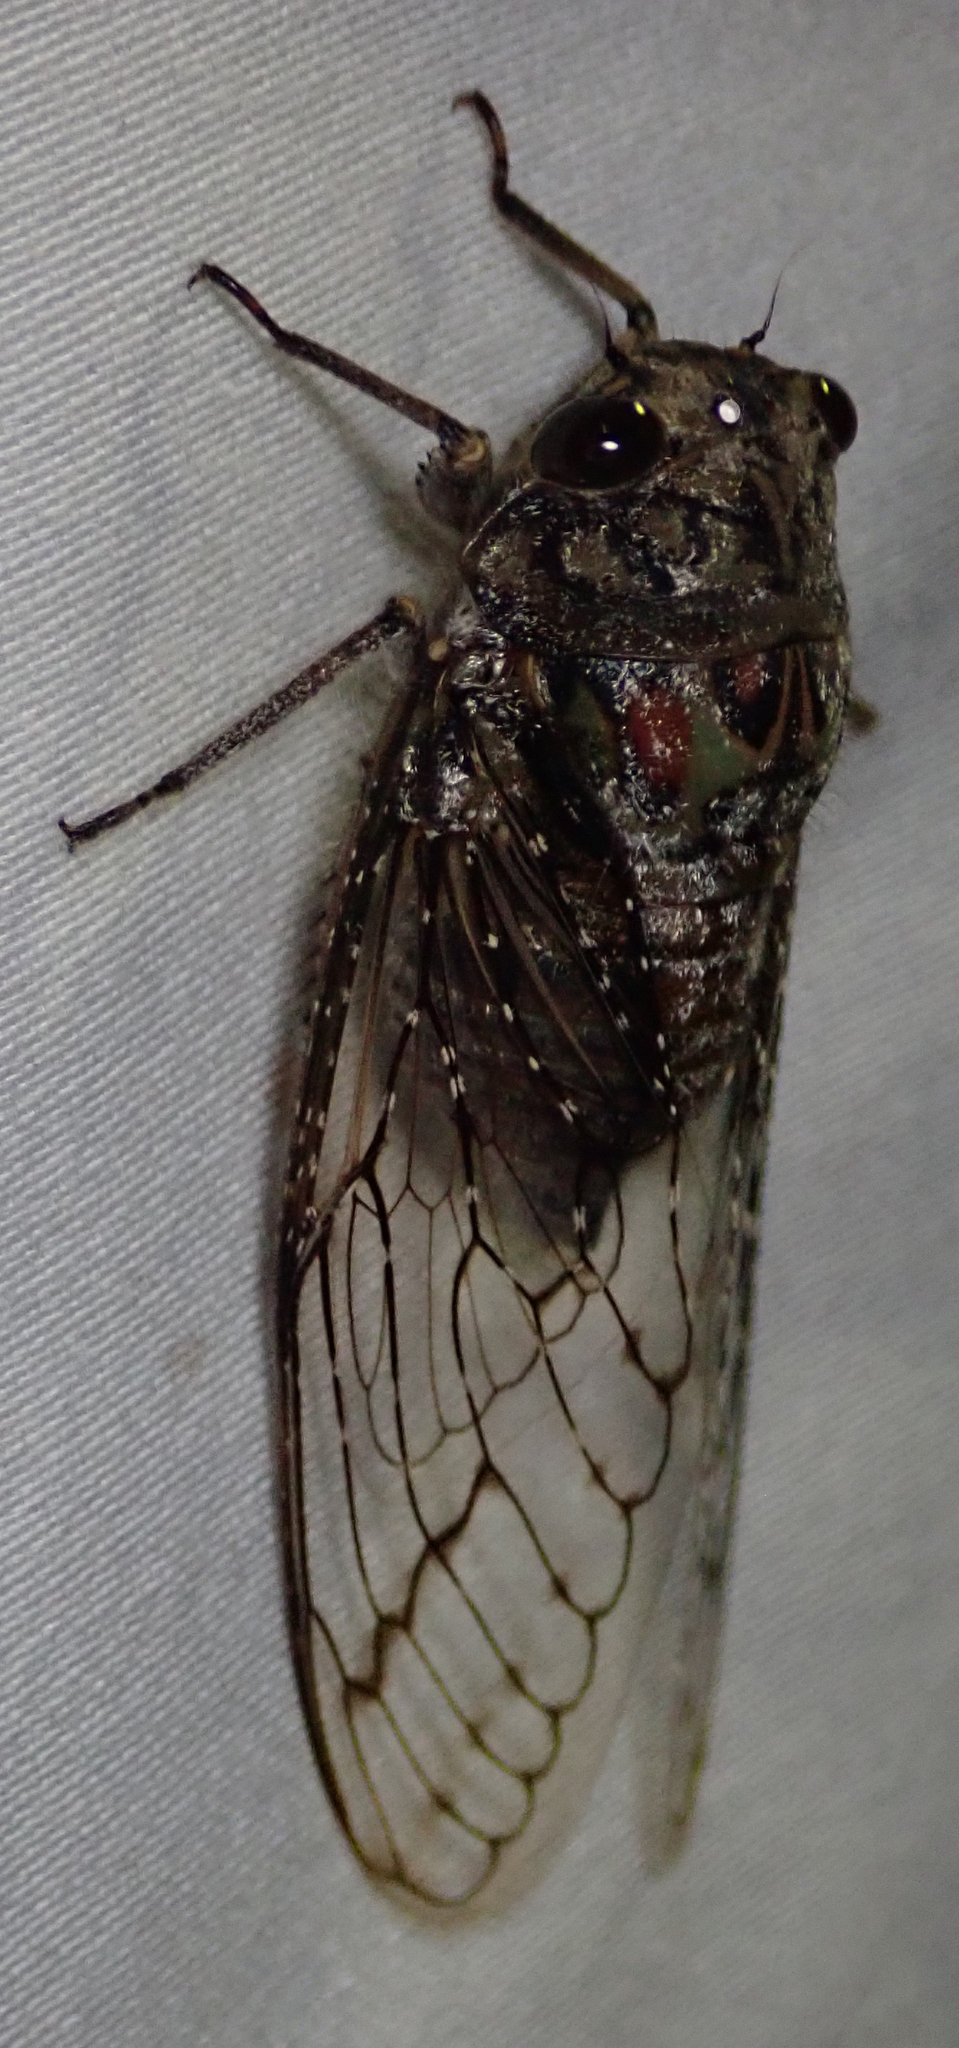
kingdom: Animalia
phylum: Arthropoda
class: Insecta
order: Hemiptera
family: Cicadidae
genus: Brevisiana
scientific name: Brevisiana brevis
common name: Shrill thorntree cicada
